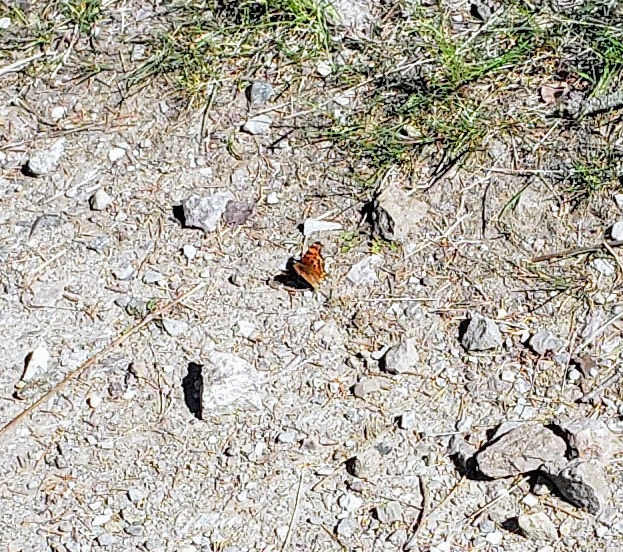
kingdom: Animalia
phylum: Arthropoda
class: Insecta
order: Lepidoptera
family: Nymphalidae
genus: Polygonia
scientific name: Polygonia gracilis
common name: Hoary comma
